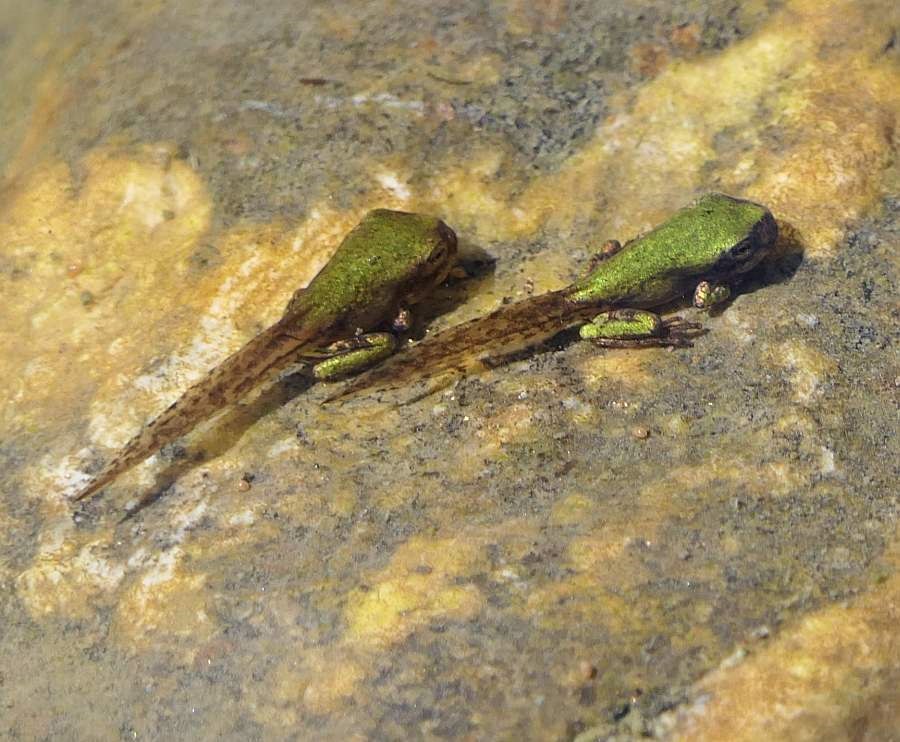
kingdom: Animalia
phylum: Chordata
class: Amphibia
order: Anura
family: Hylidae
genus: Dryophytes
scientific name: Dryophytes versicolor
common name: Gray treefrog
